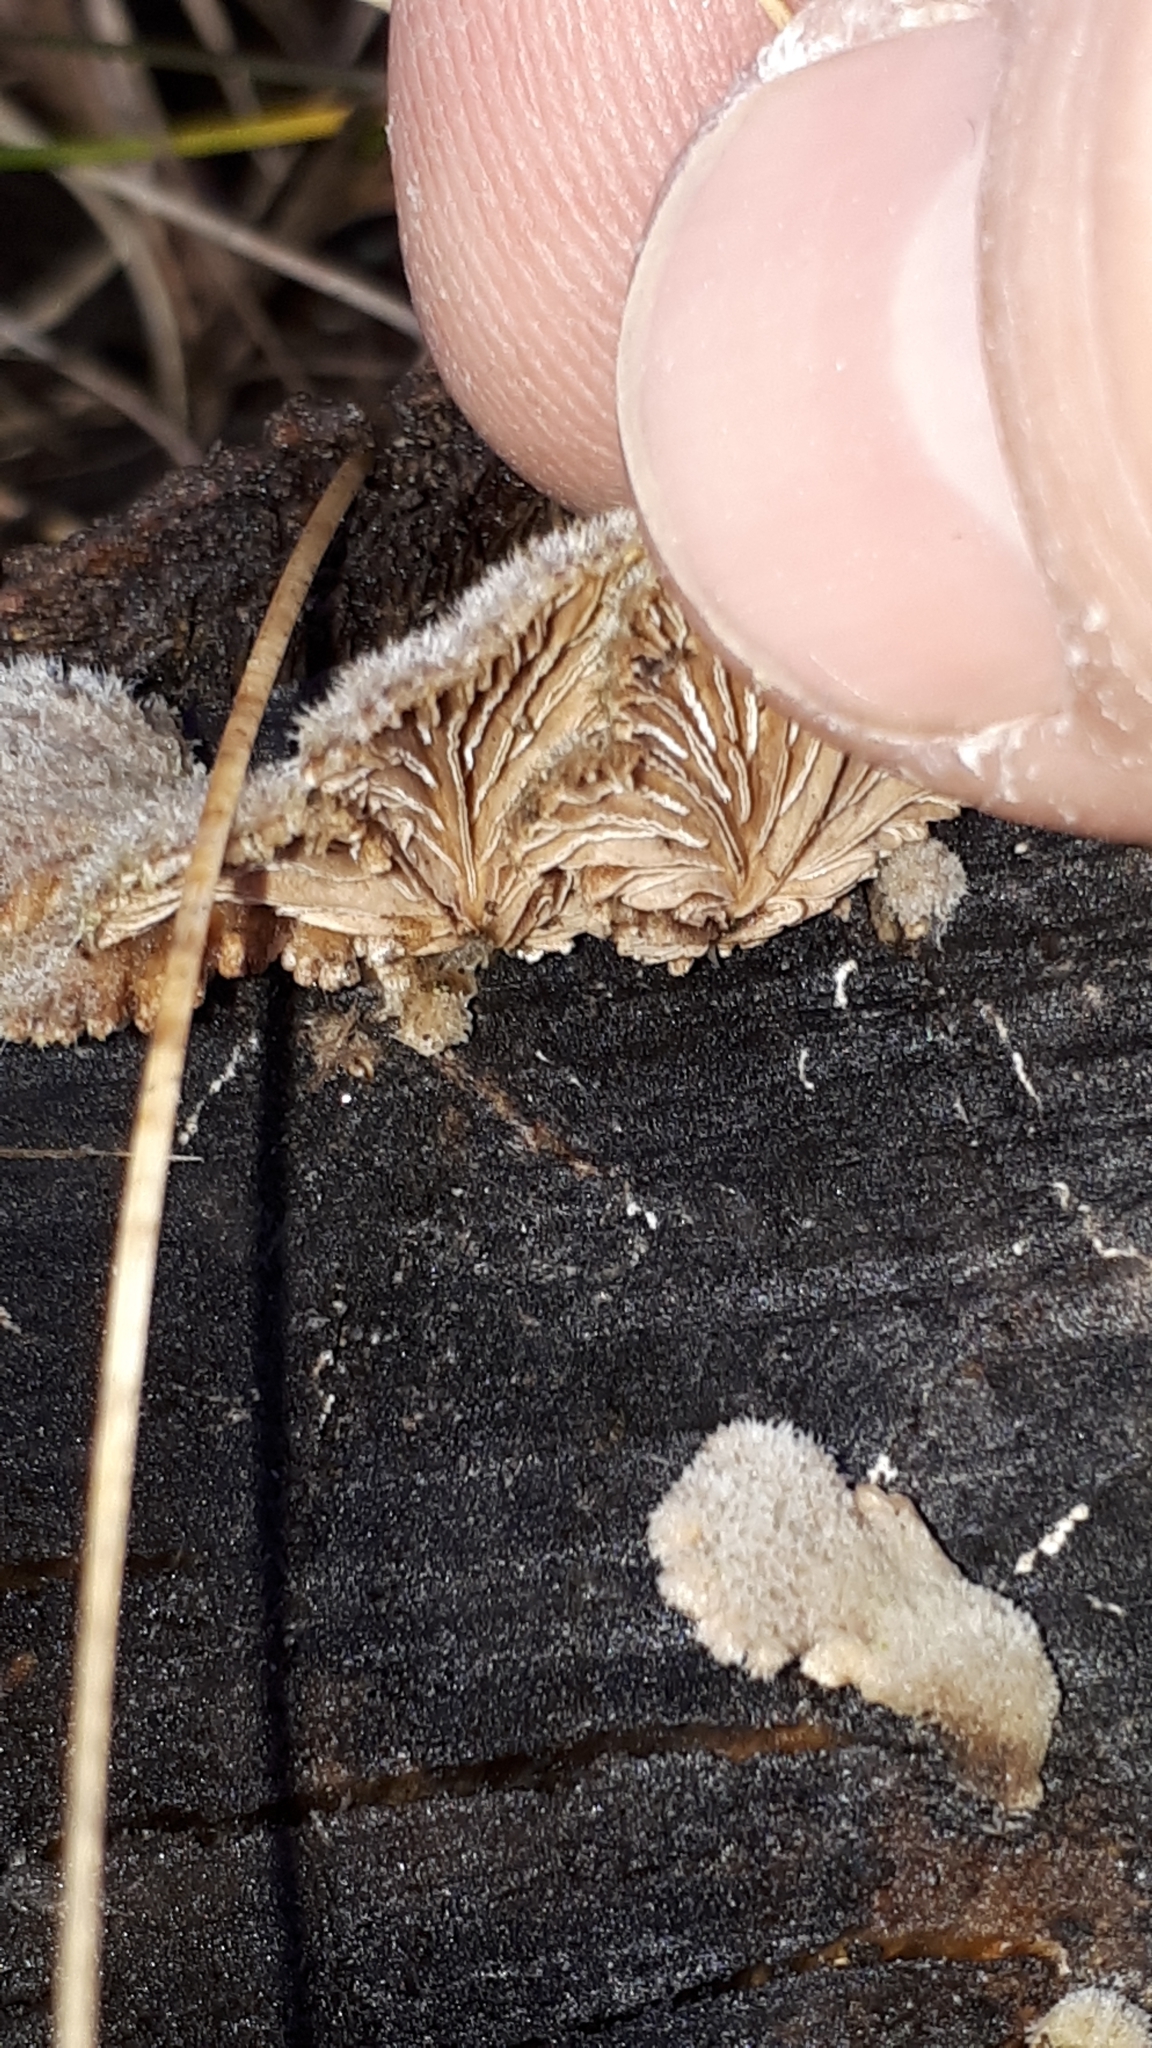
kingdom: Fungi
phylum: Basidiomycota
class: Agaricomycetes
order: Agaricales
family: Schizophyllaceae
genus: Schizophyllum
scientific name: Schizophyllum commune
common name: Common porecrust
